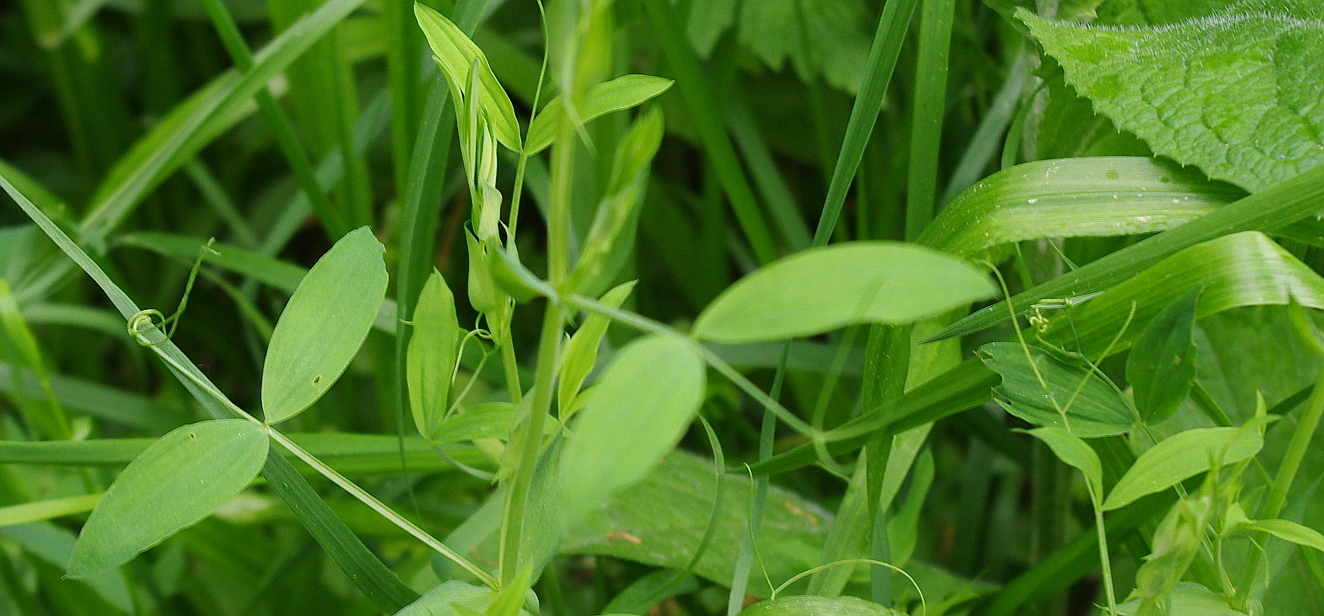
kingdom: Plantae
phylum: Tracheophyta
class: Magnoliopsida
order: Fabales
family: Fabaceae
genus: Lathyrus
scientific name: Lathyrus pratensis
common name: Meadow vetchling
